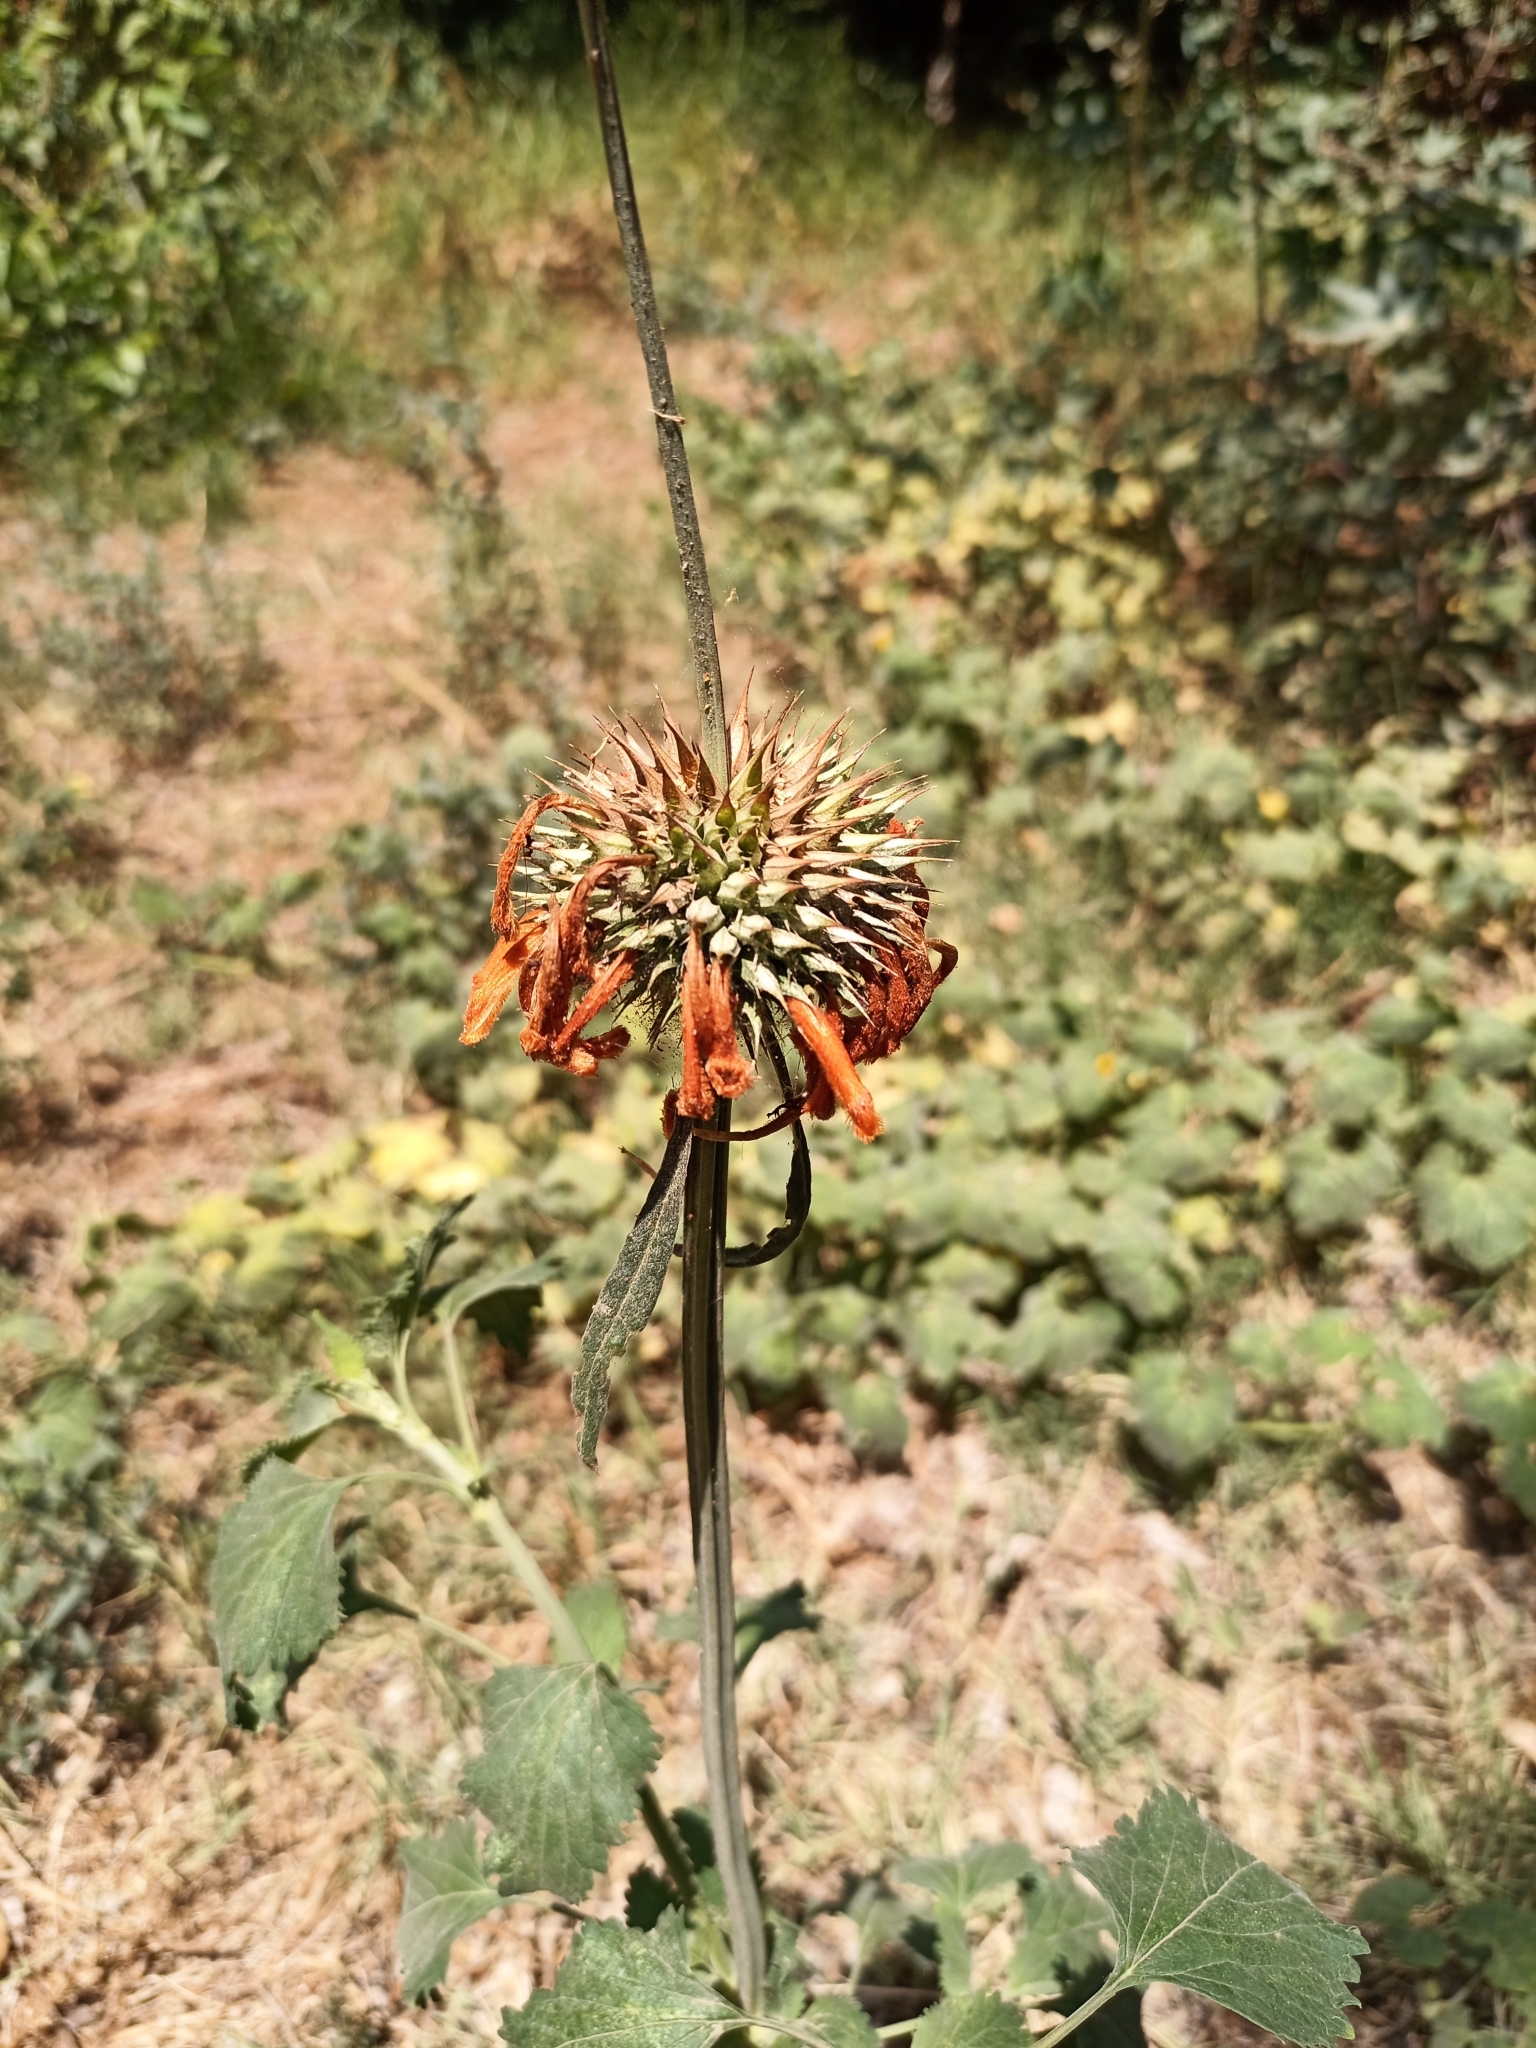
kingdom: Plantae
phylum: Tracheophyta
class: Magnoliopsida
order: Lamiales
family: Lamiaceae
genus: Leonotis
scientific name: Leonotis nepetifolia
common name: Christmas candlestick
